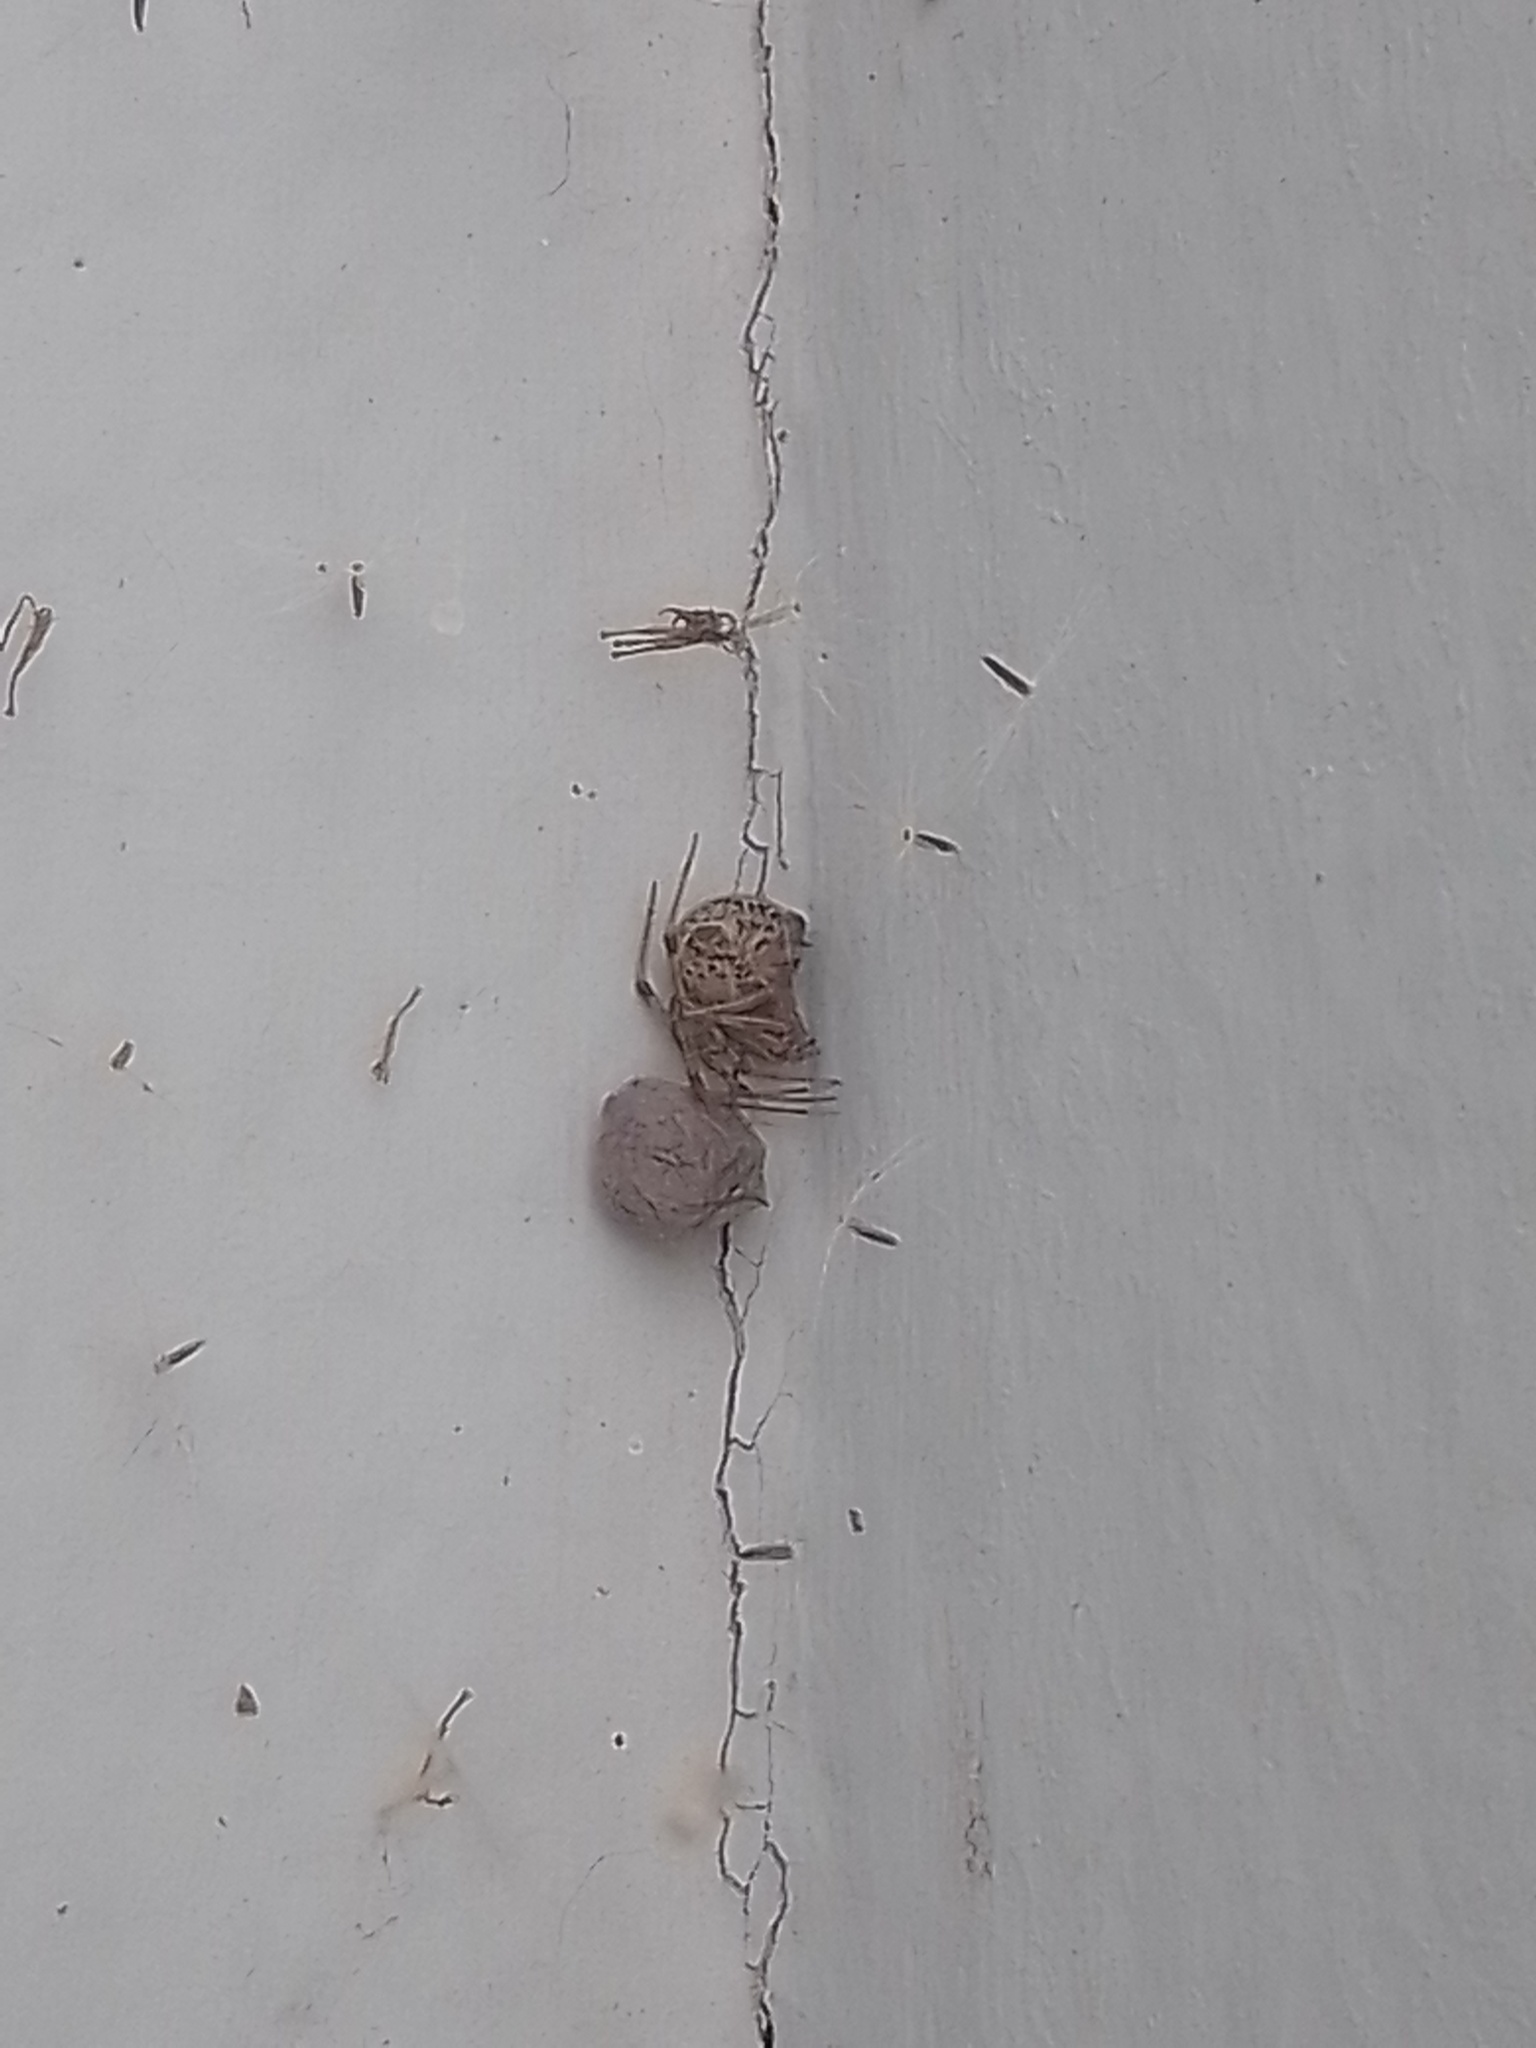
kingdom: Animalia
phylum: Arthropoda
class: Arachnida
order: Araneae
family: Theridiidae
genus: Parasteatoda
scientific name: Parasteatoda tepidariorum
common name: Common house spider
